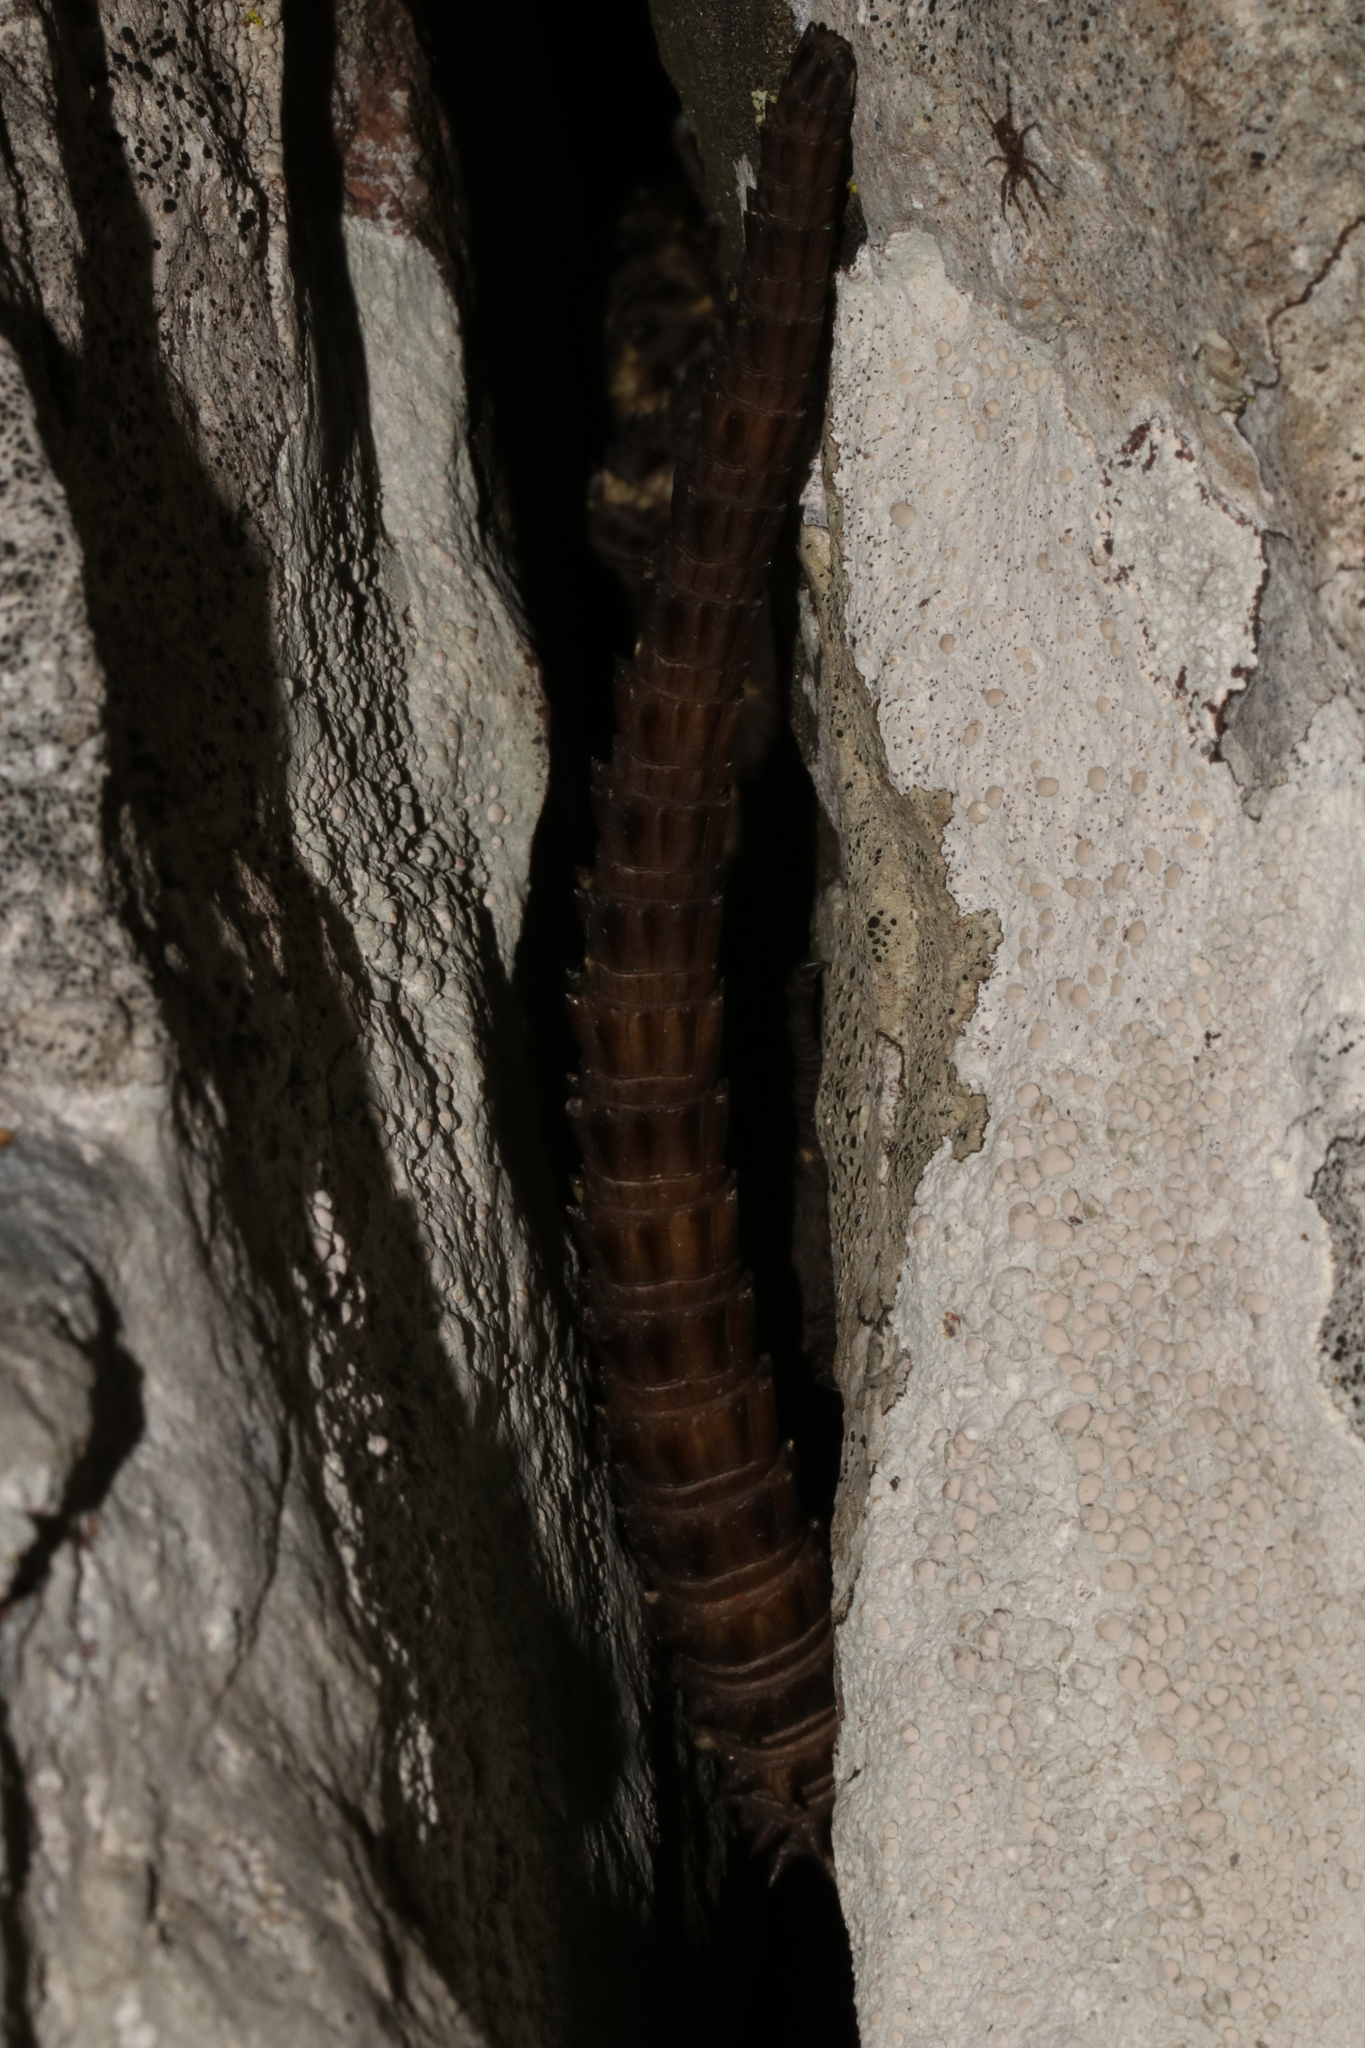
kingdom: Animalia
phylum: Chordata
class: Squamata
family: Cordylidae
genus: Smaug
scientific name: Smaug depressus
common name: Flat dragon lizard
